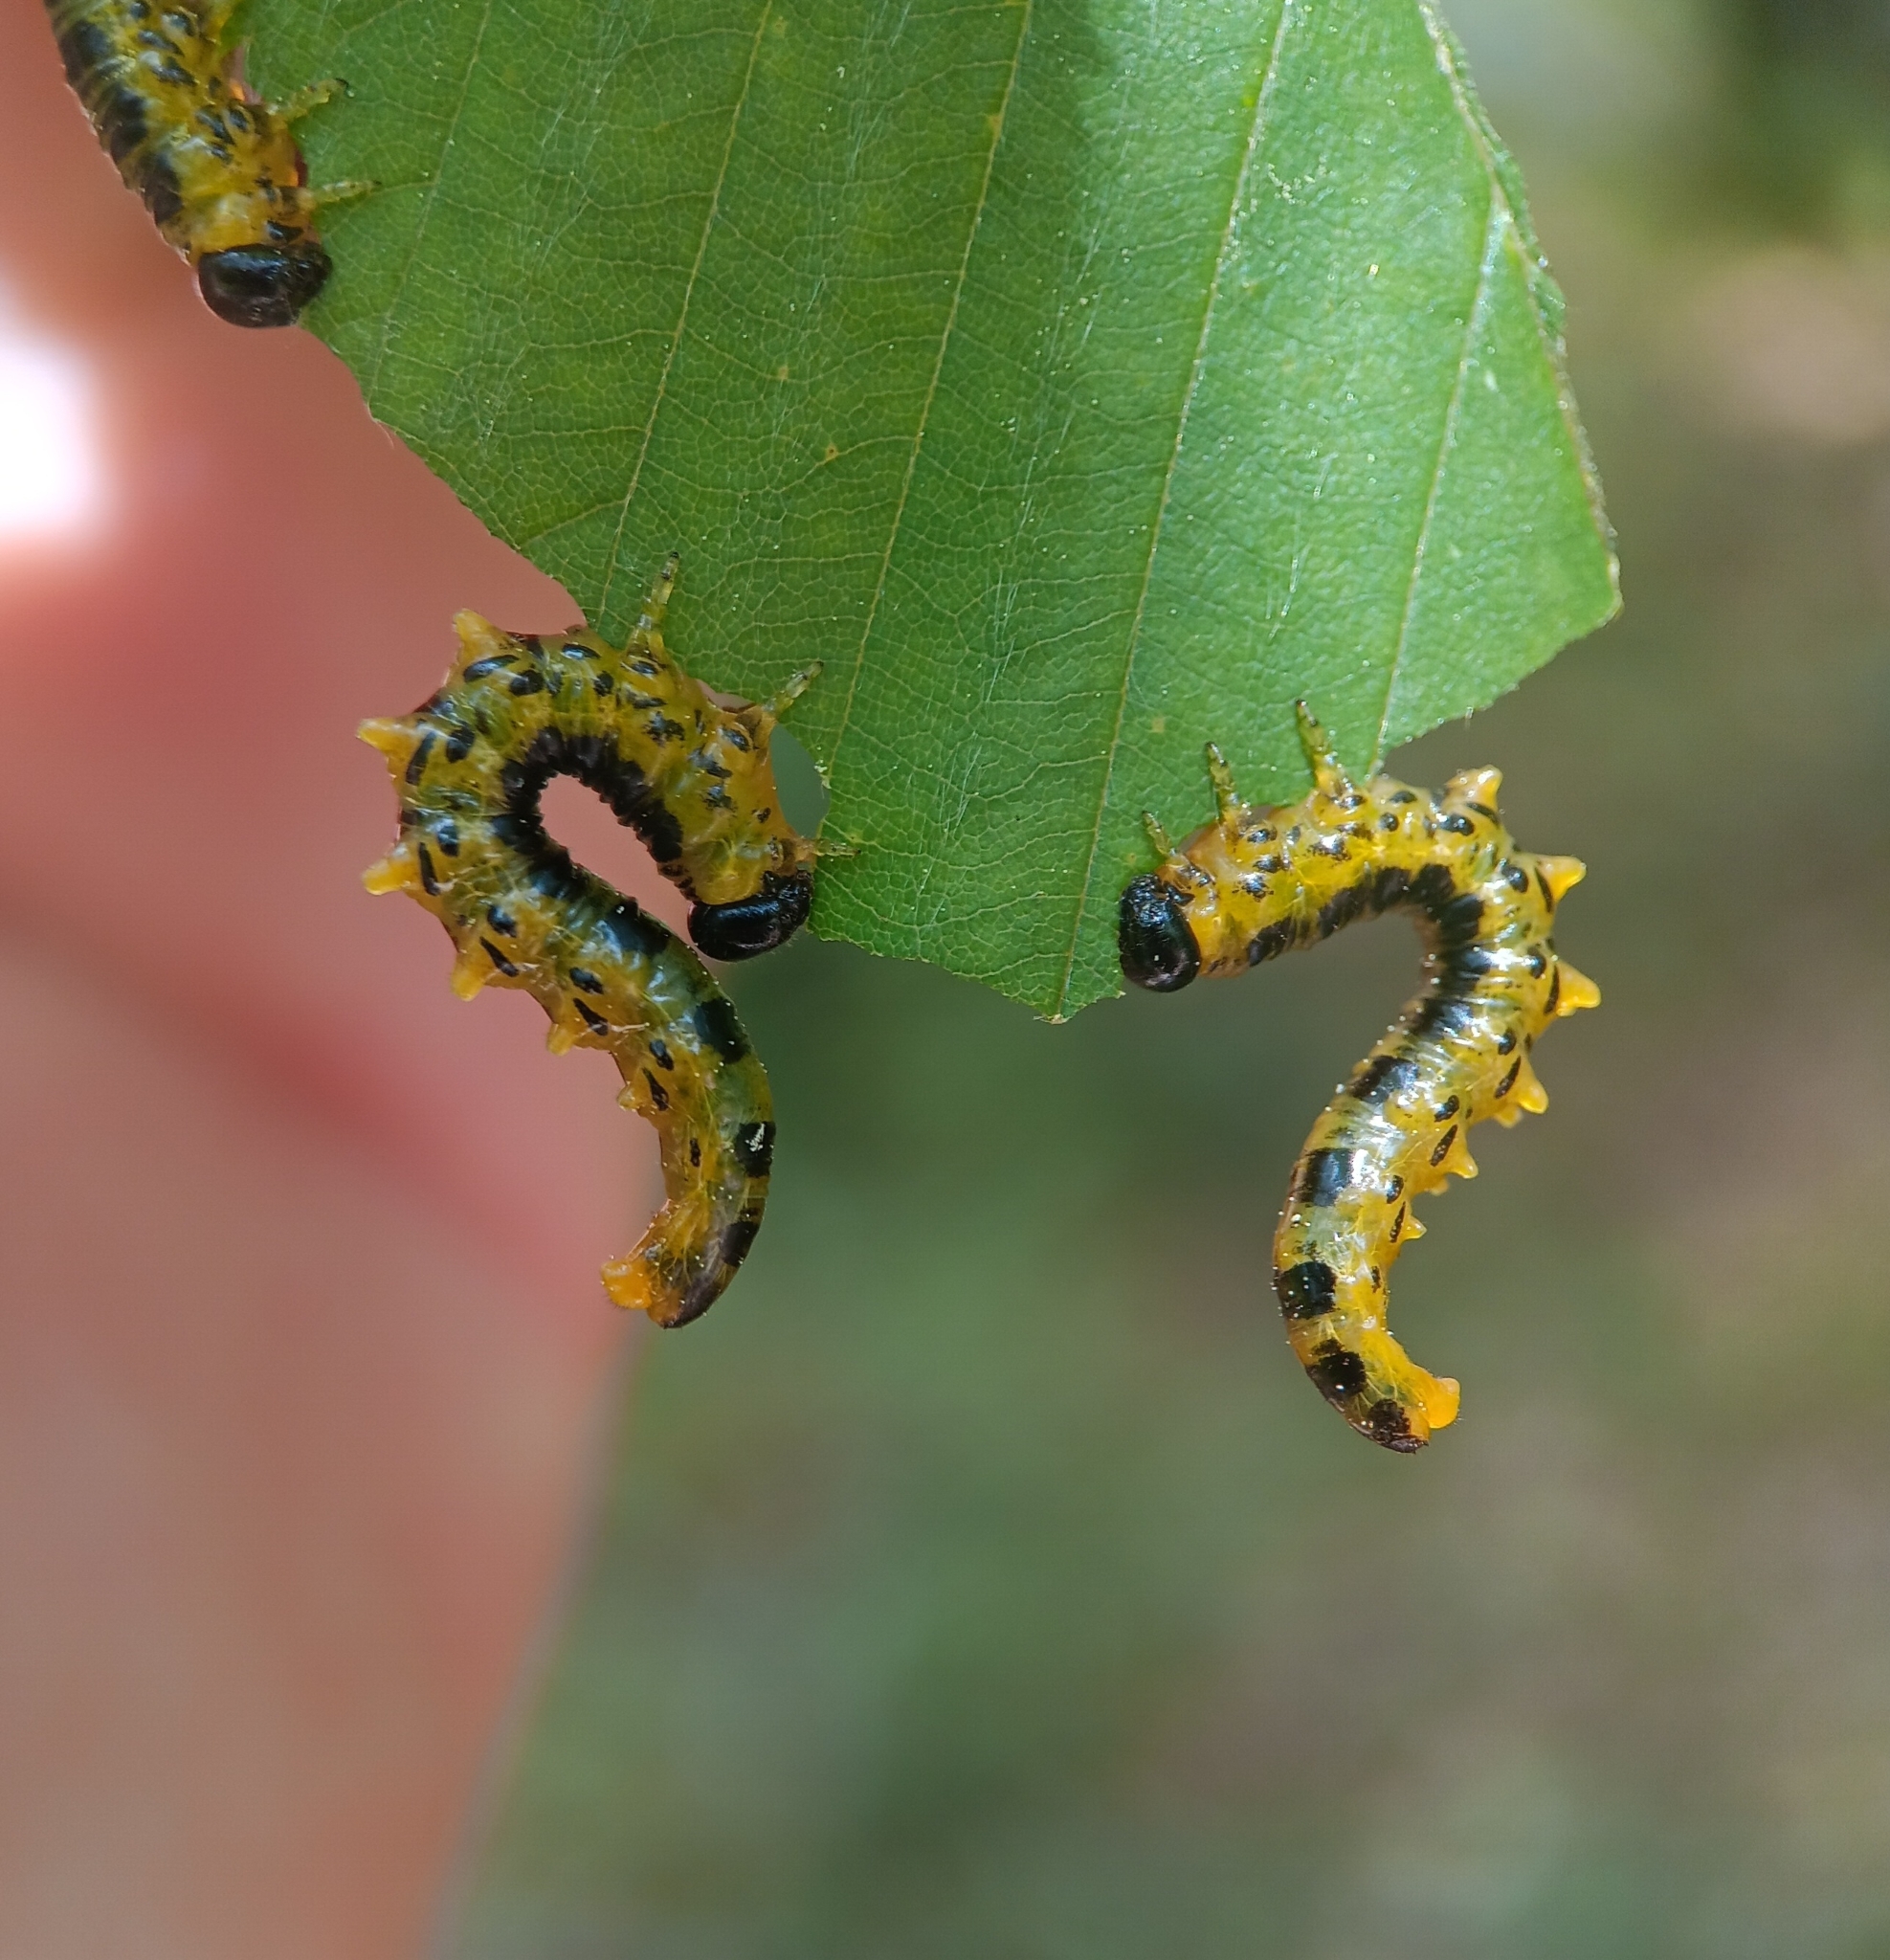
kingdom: Animalia
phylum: Arthropoda
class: Insecta
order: Hymenoptera
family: Tenthredinidae
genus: Nematus
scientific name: Nematus
